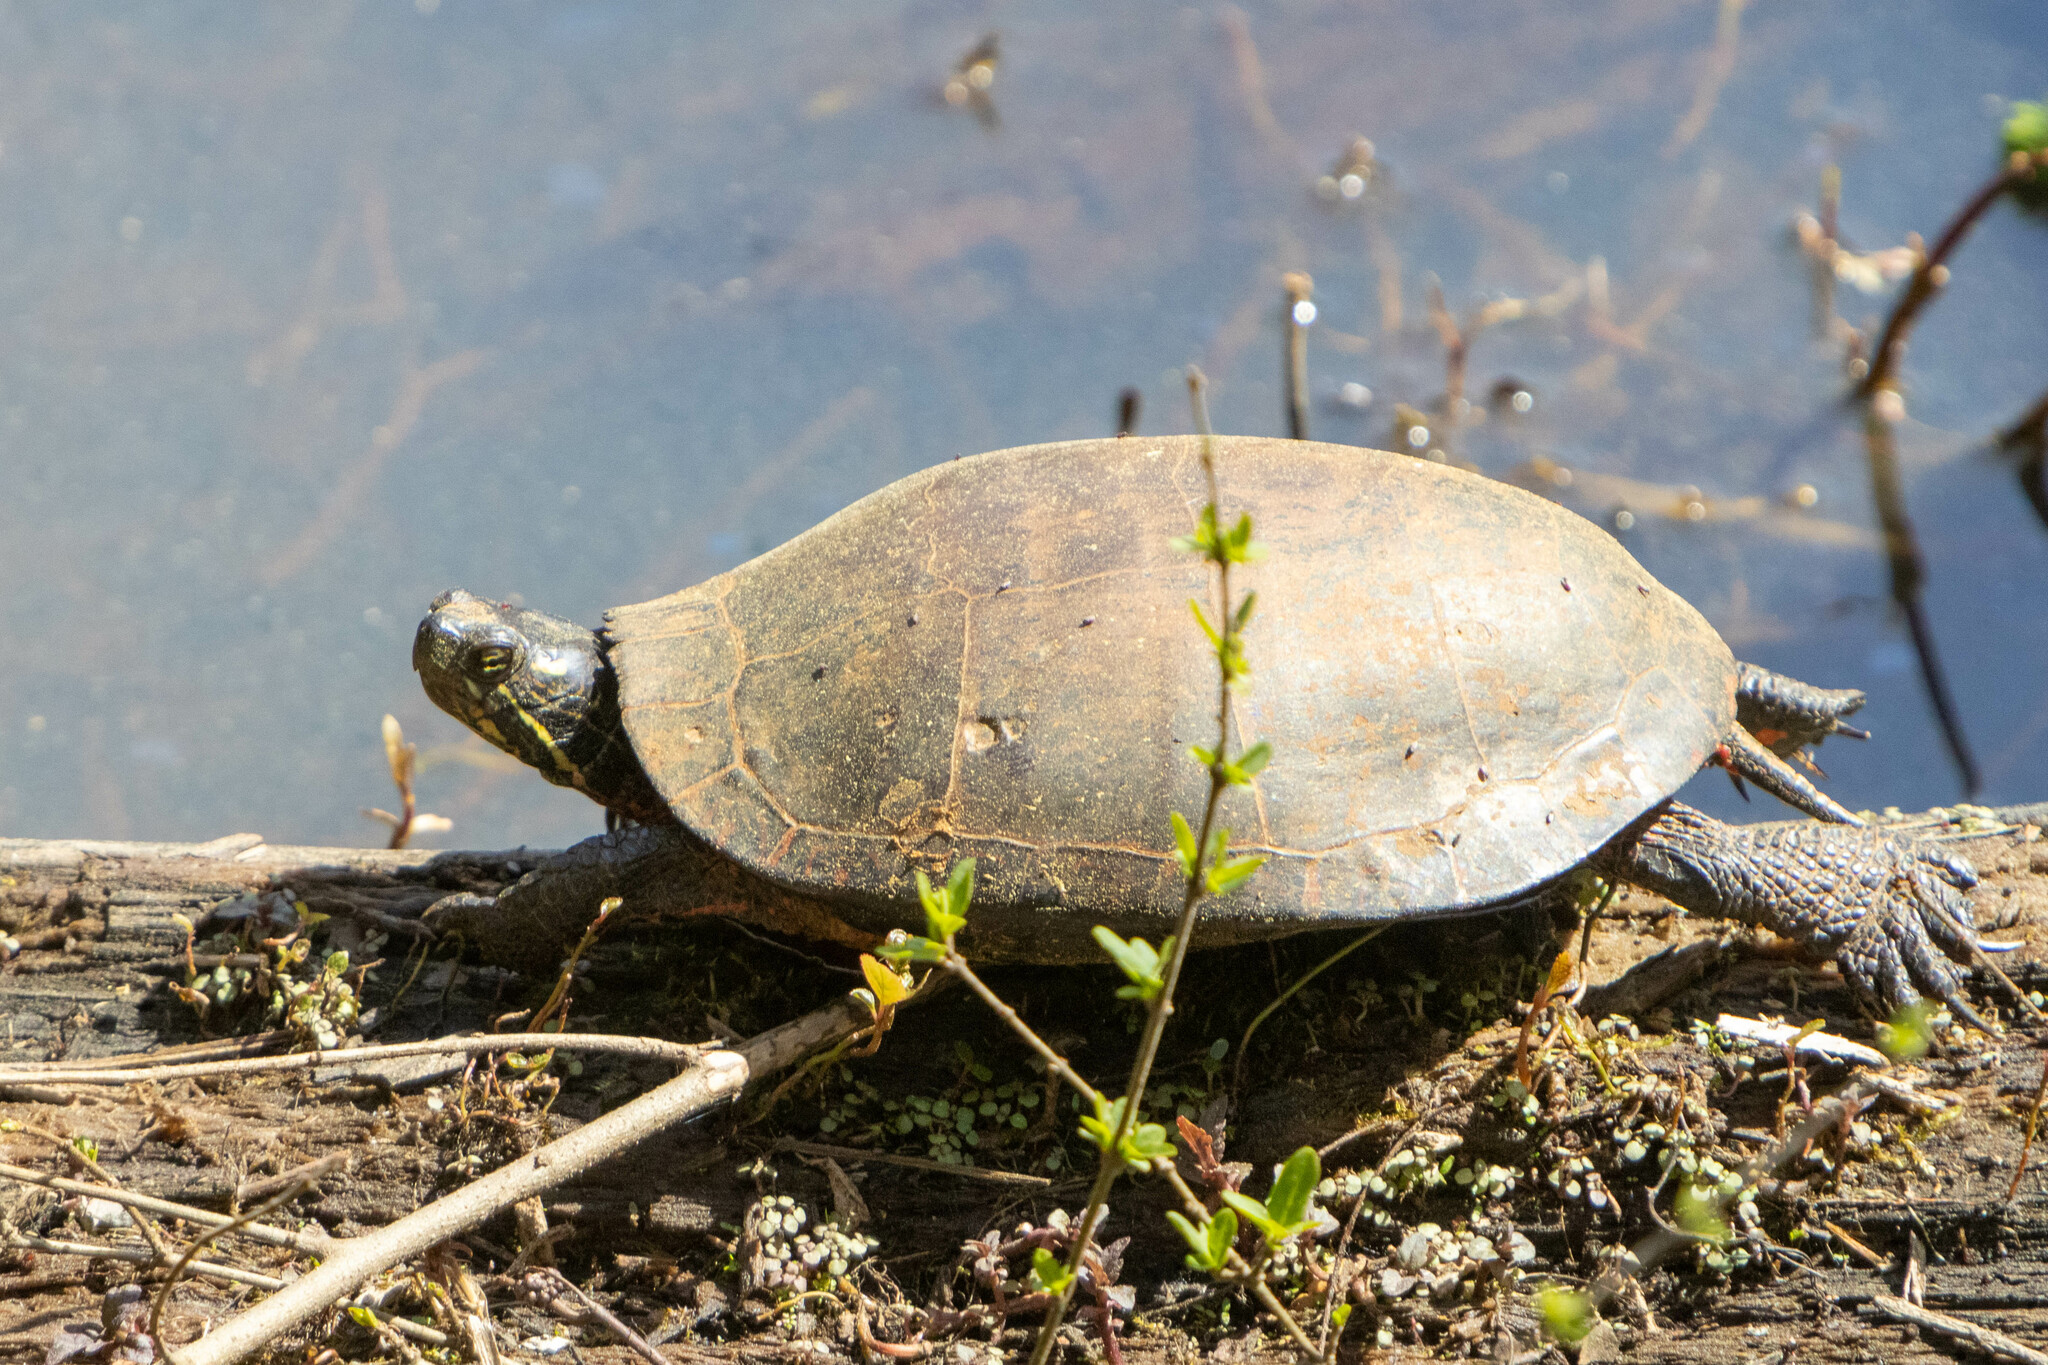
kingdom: Animalia
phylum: Chordata
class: Testudines
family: Emydidae
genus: Chrysemys
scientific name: Chrysemys picta
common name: Painted turtle
